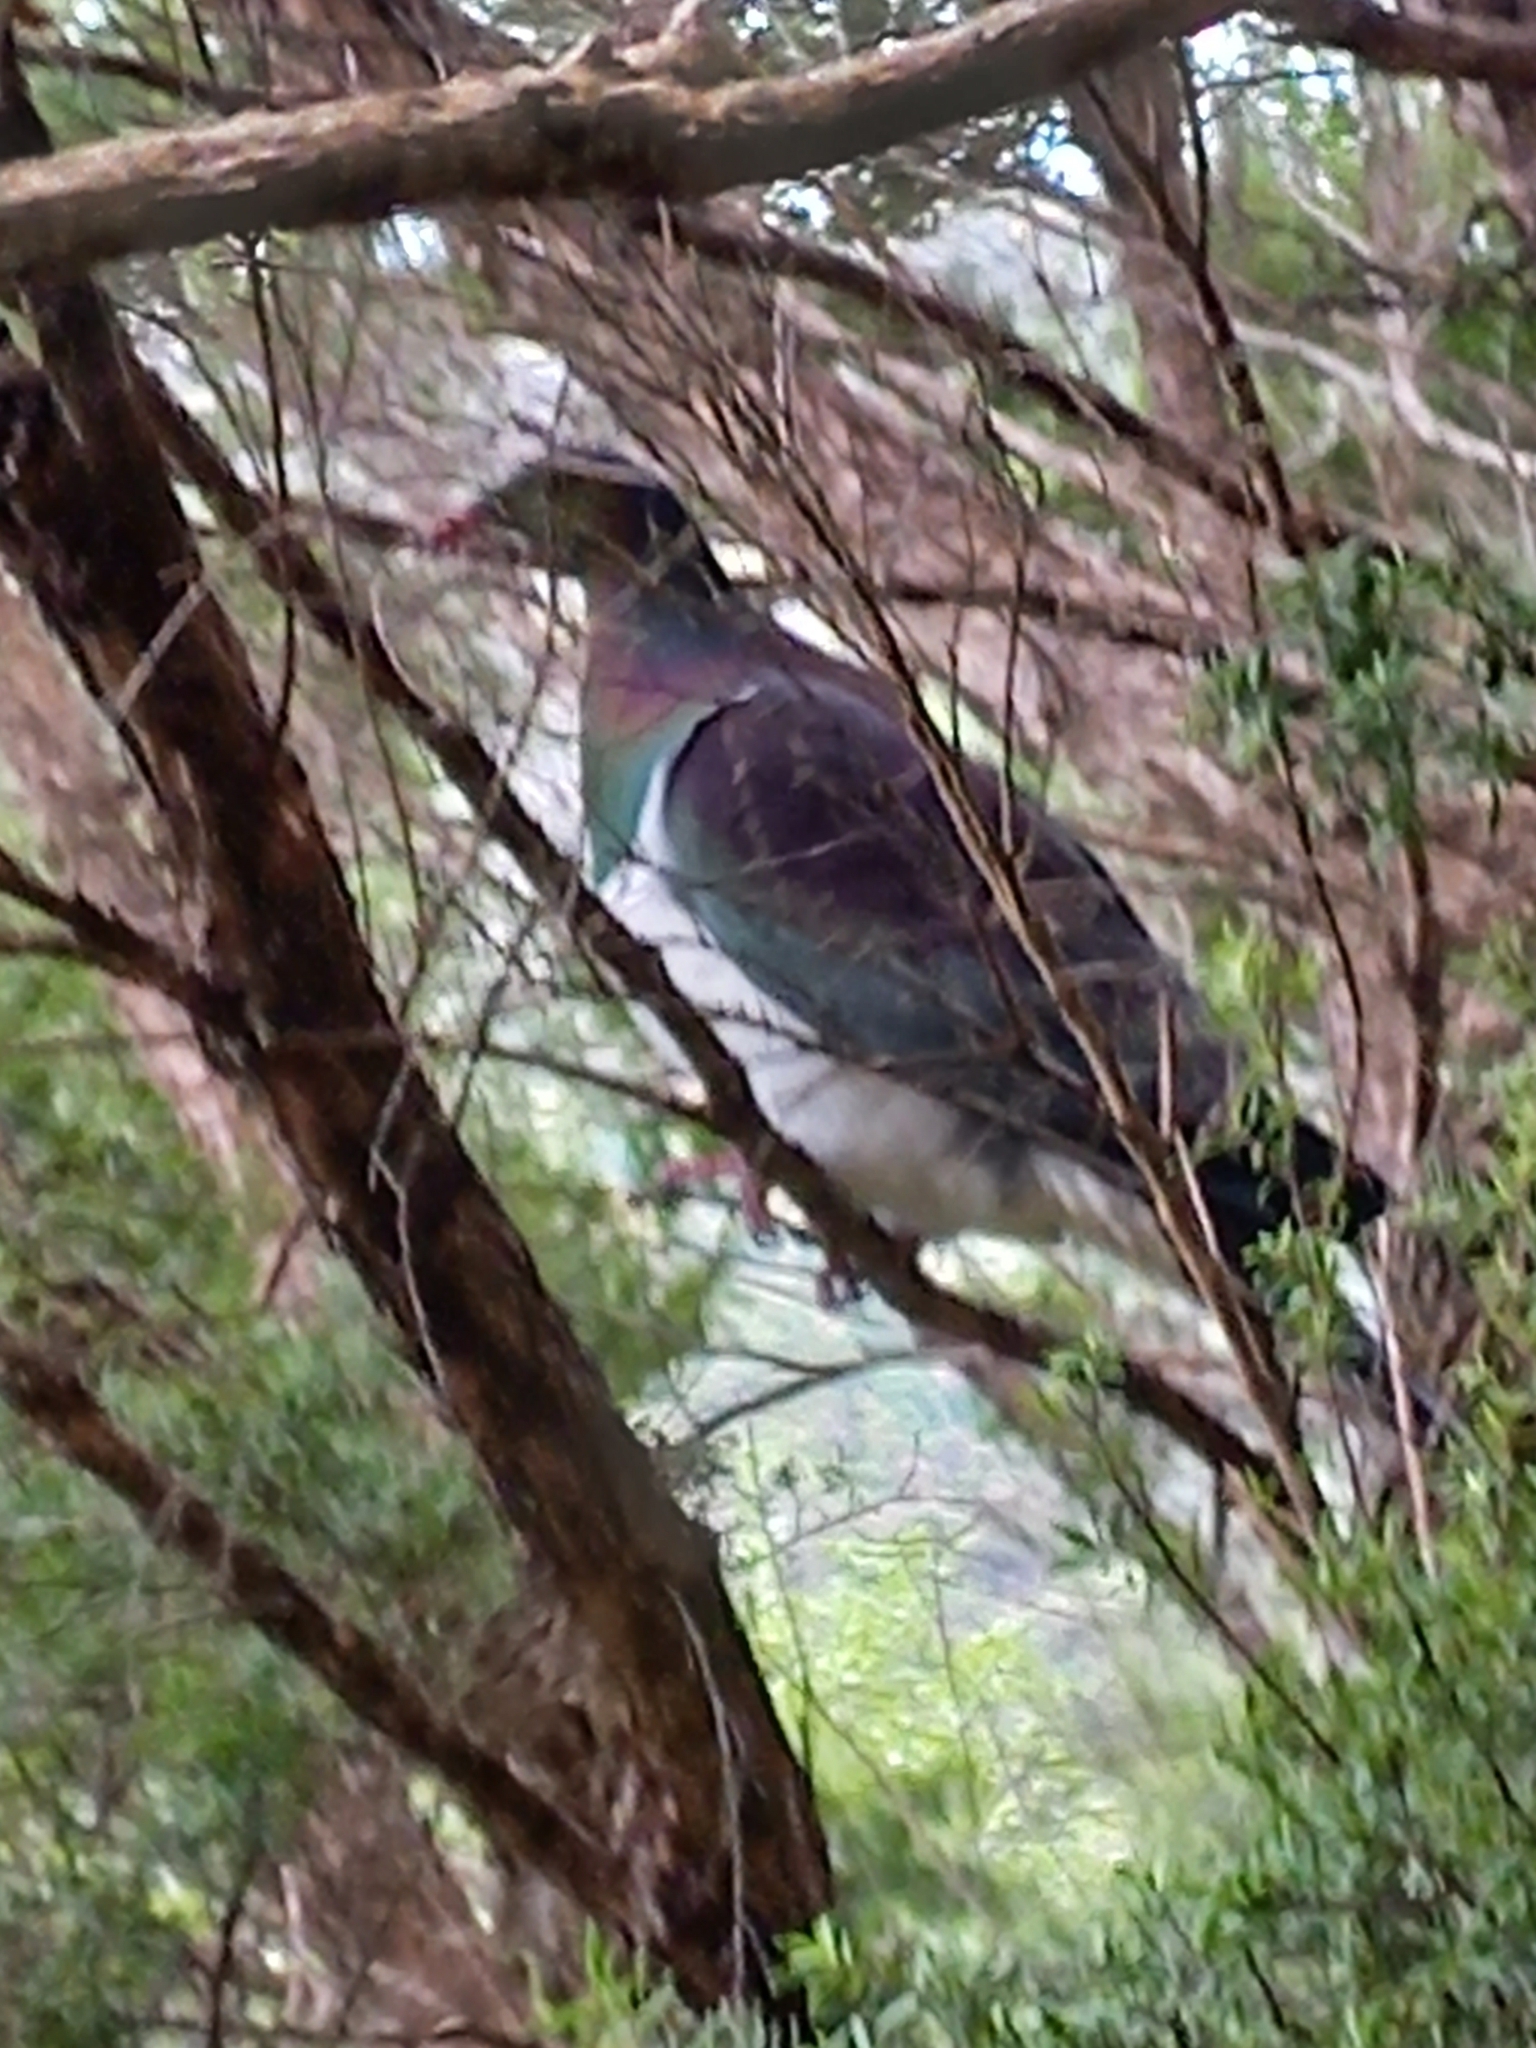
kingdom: Animalia
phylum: Chordata
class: Aves
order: Columbiformes
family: Columbidae
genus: Hemiphaga
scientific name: Hemiphaga novaeseelandiae
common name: New zealand pigeon
